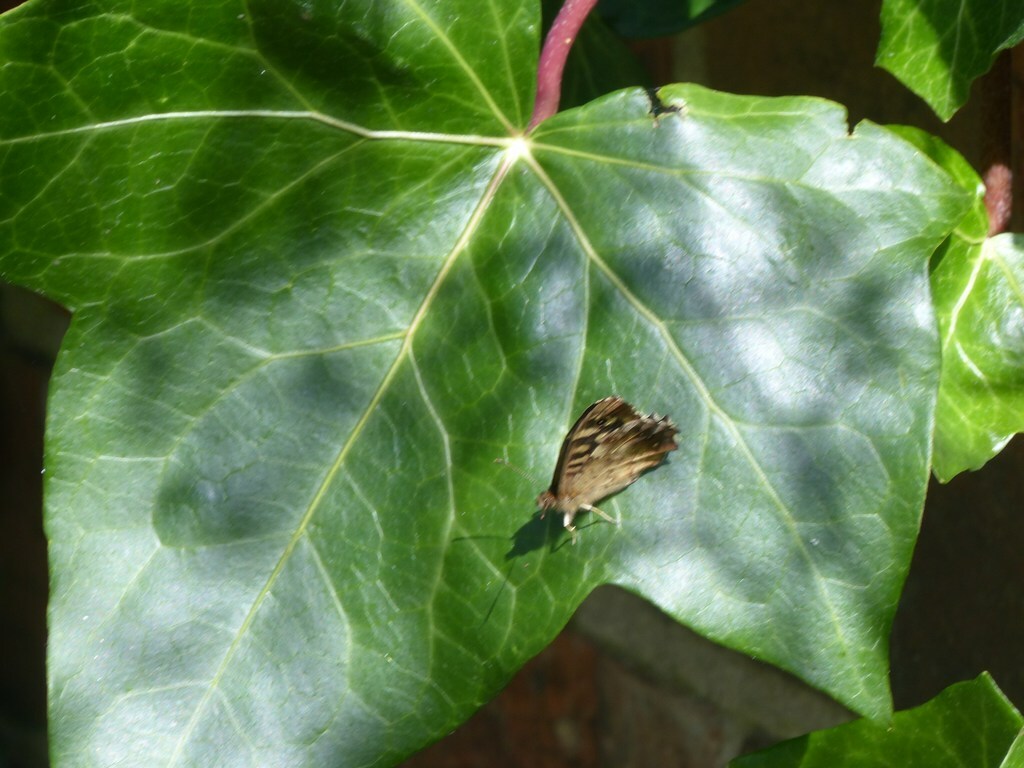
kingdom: Animalia
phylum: Arthropoda
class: Insecta
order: Lepidoptera
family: Nymphalidae
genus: Pararge
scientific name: Pararge aegeria
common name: Speckled wood
